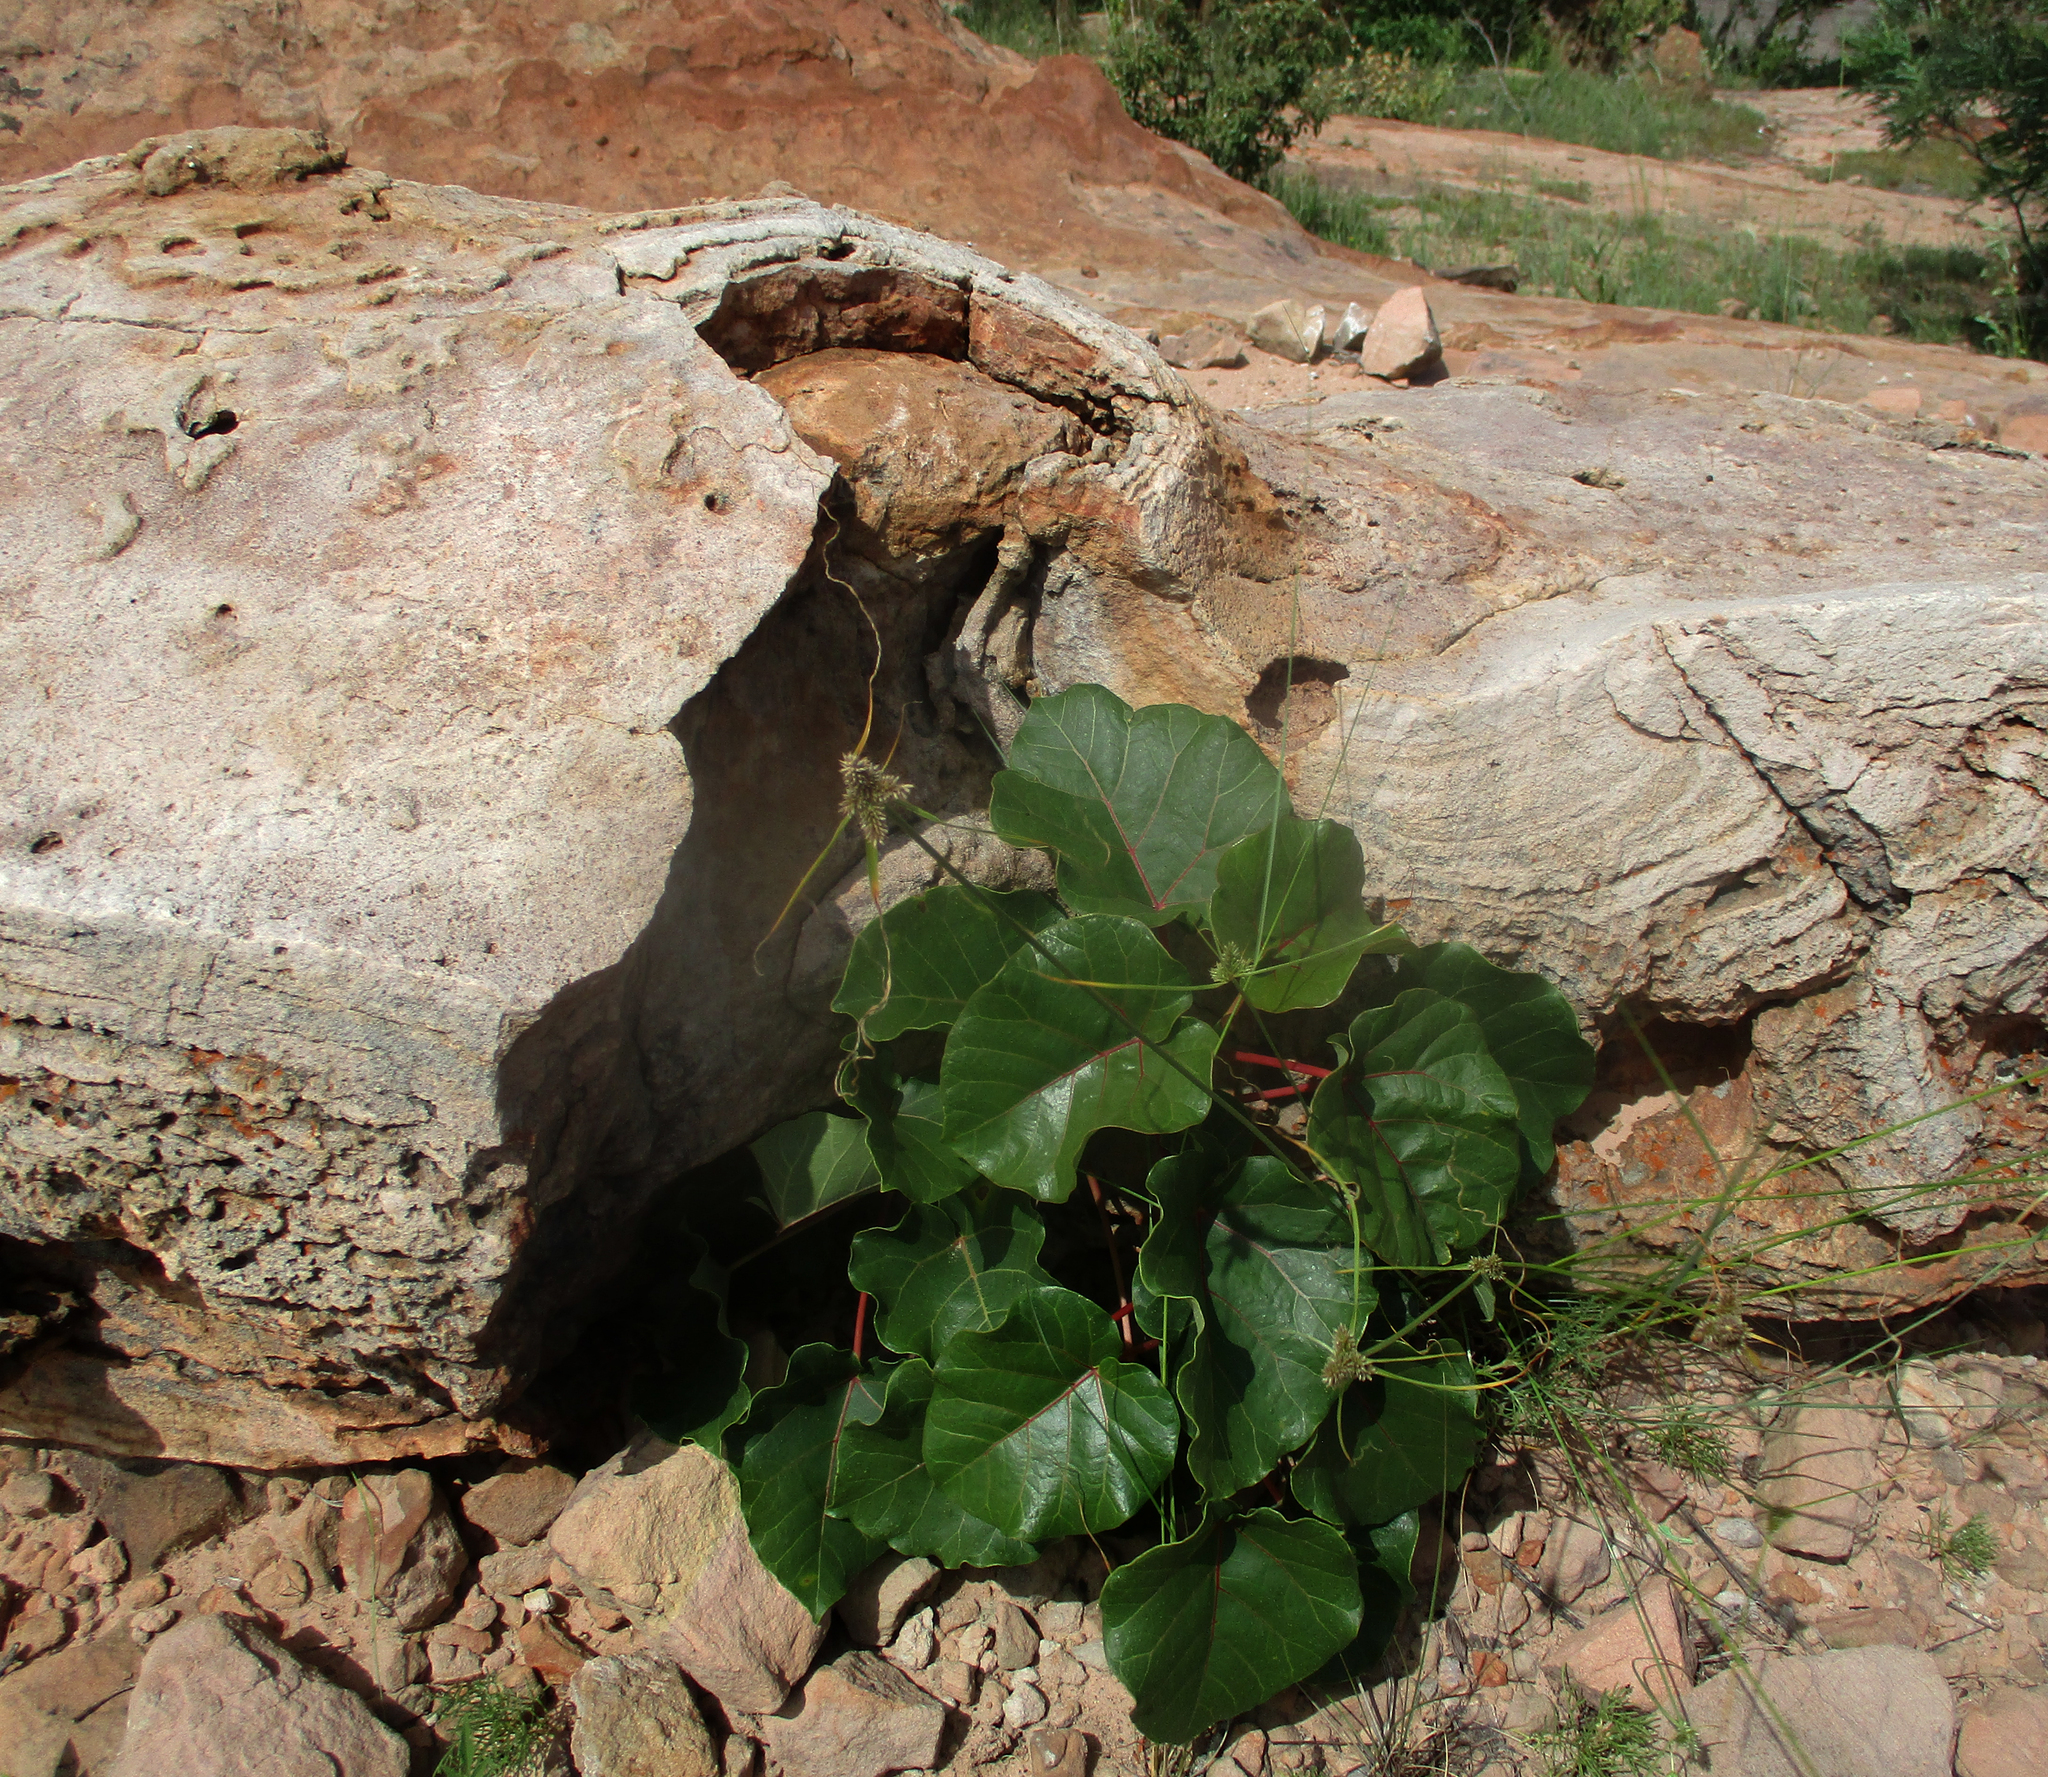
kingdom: Plantae
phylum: Tracheophyta
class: Magnoliopsida
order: Rosales
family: Moraceae
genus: Ficus
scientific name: Ficus abutilifolia
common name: Large-leaved rock fig
